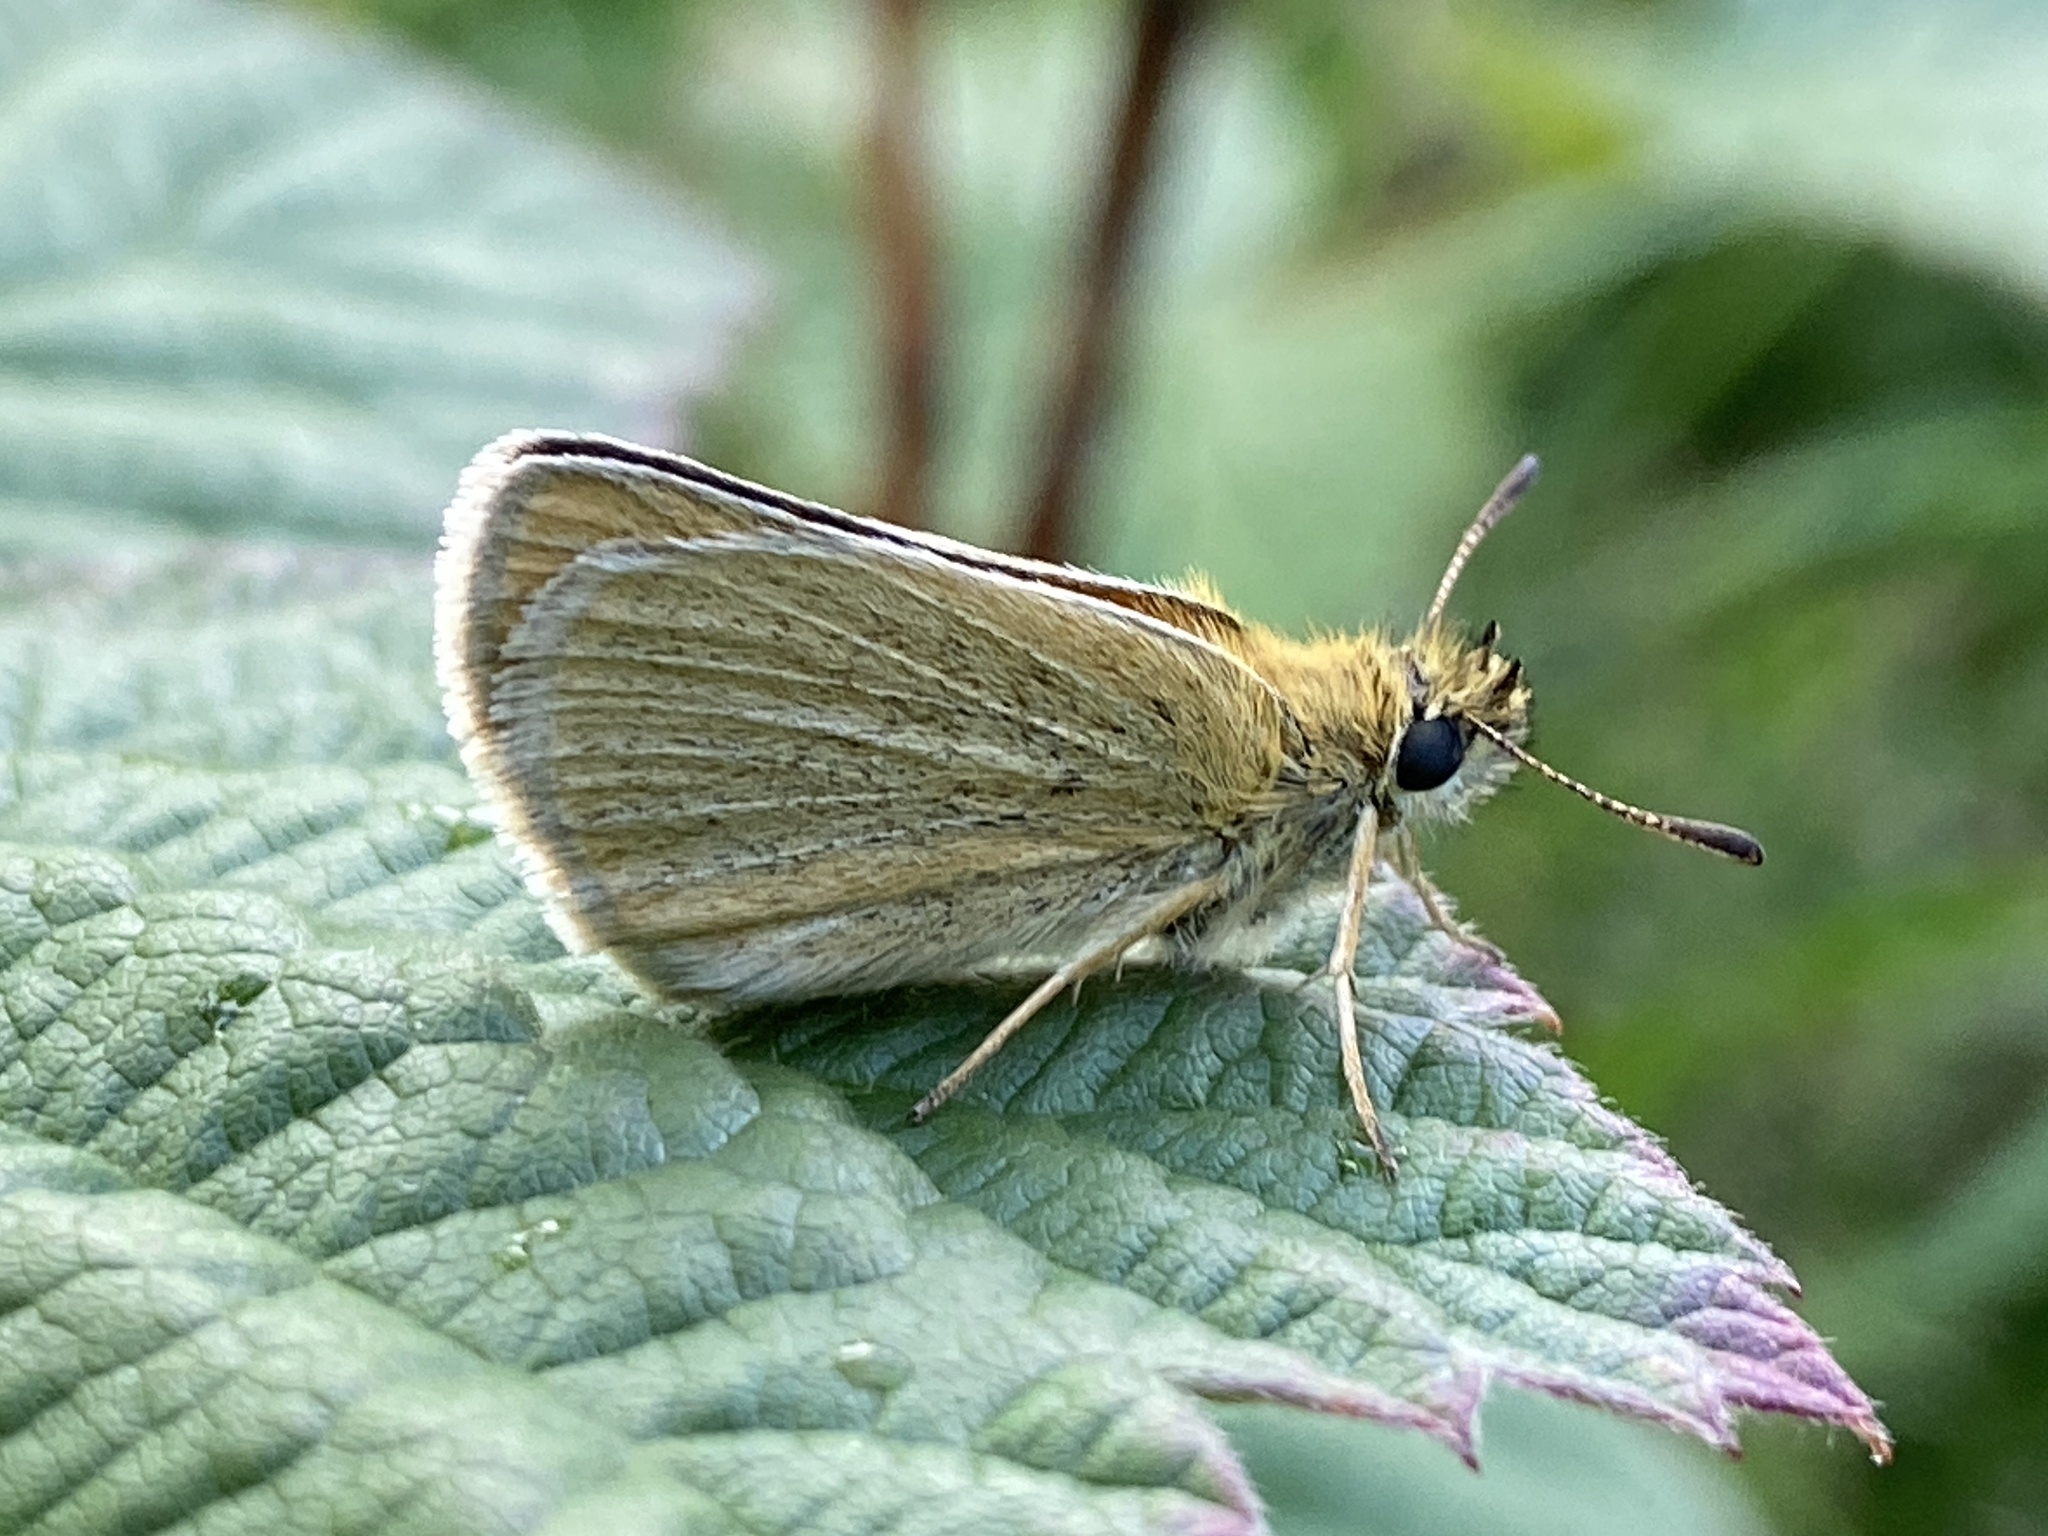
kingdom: Animalia
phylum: Arthropoda
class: Insecta
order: Lepidoptera
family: Hesperiidae
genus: Thymelicus
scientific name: Thymelicus lineola
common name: Essex skipper
